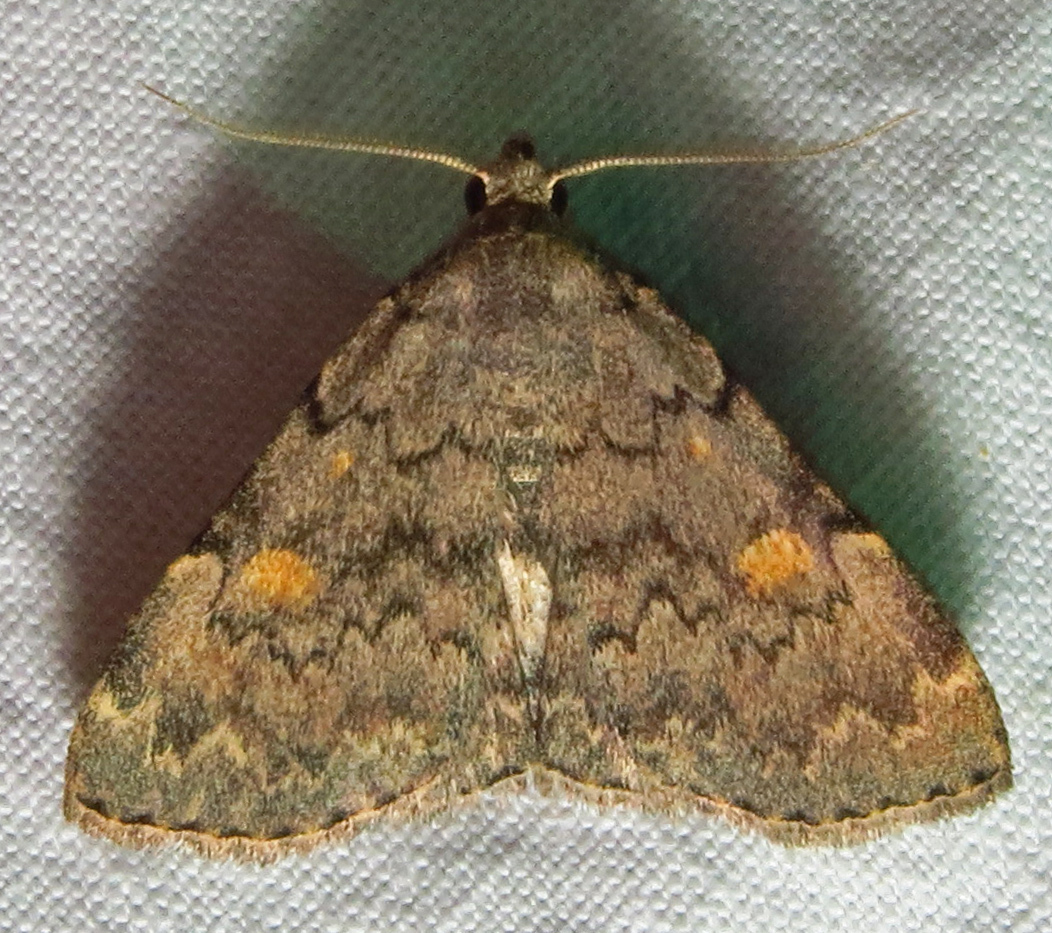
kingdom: Animalia
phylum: Arthropoda
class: Insecta
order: Lepidoptera
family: Erebidae
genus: Idia
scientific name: Idia aemula
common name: Common idia moth
